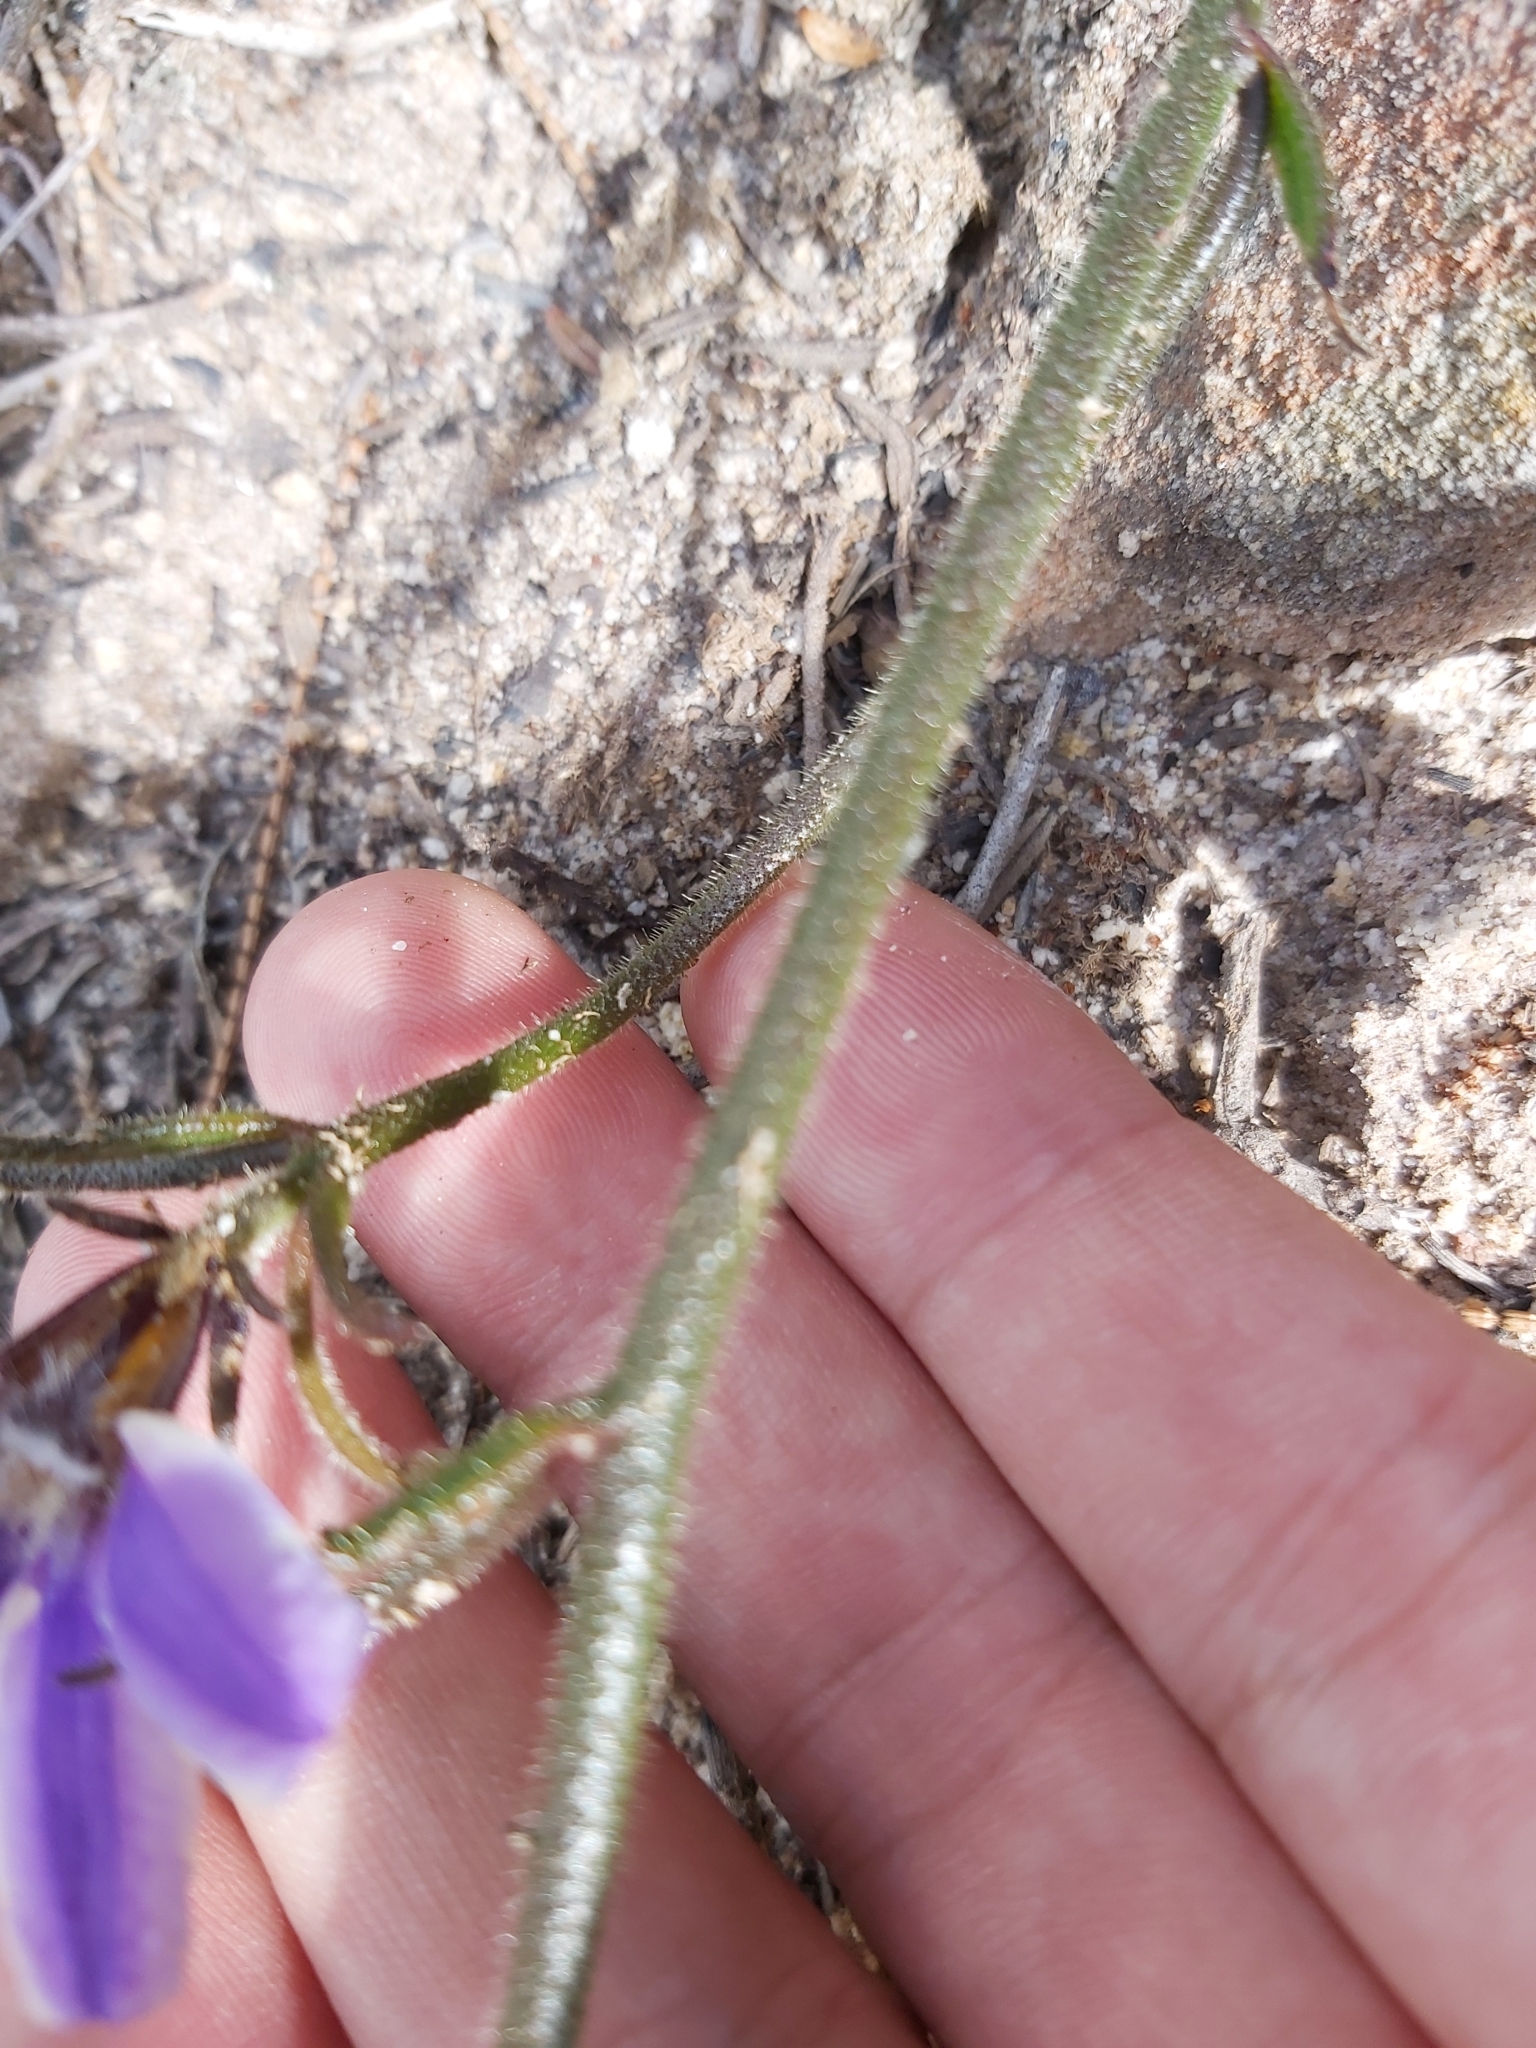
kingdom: Plantae
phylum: Tracheophyta
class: Magnoliopsida
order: Asterales
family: Goodeniaceae
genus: Scaevola
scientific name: Scaevola ramosissima
